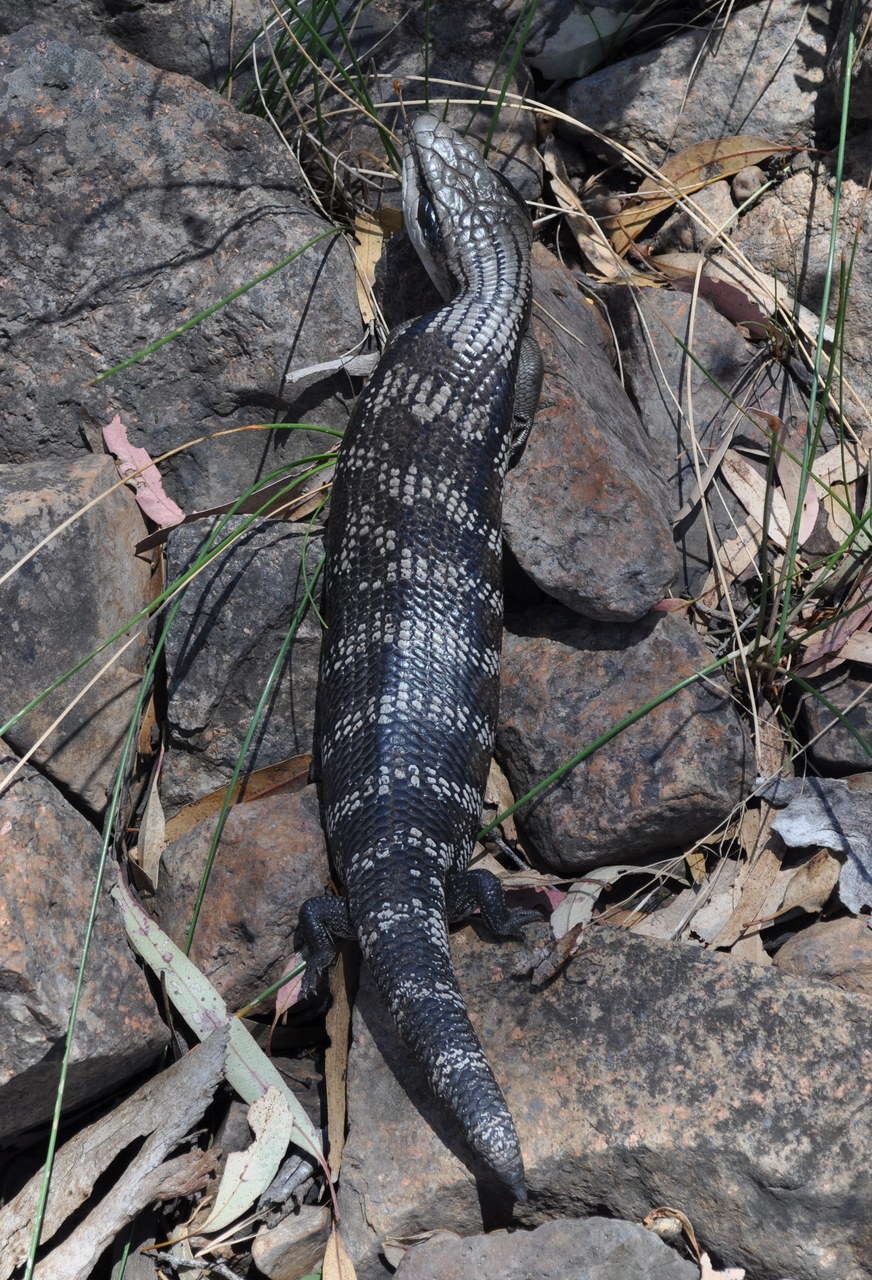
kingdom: Animalia
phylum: Chordata
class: Squamata
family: Scincidae
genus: Tiliqua
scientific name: Tiliqua scincoides
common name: Common bluetongue
